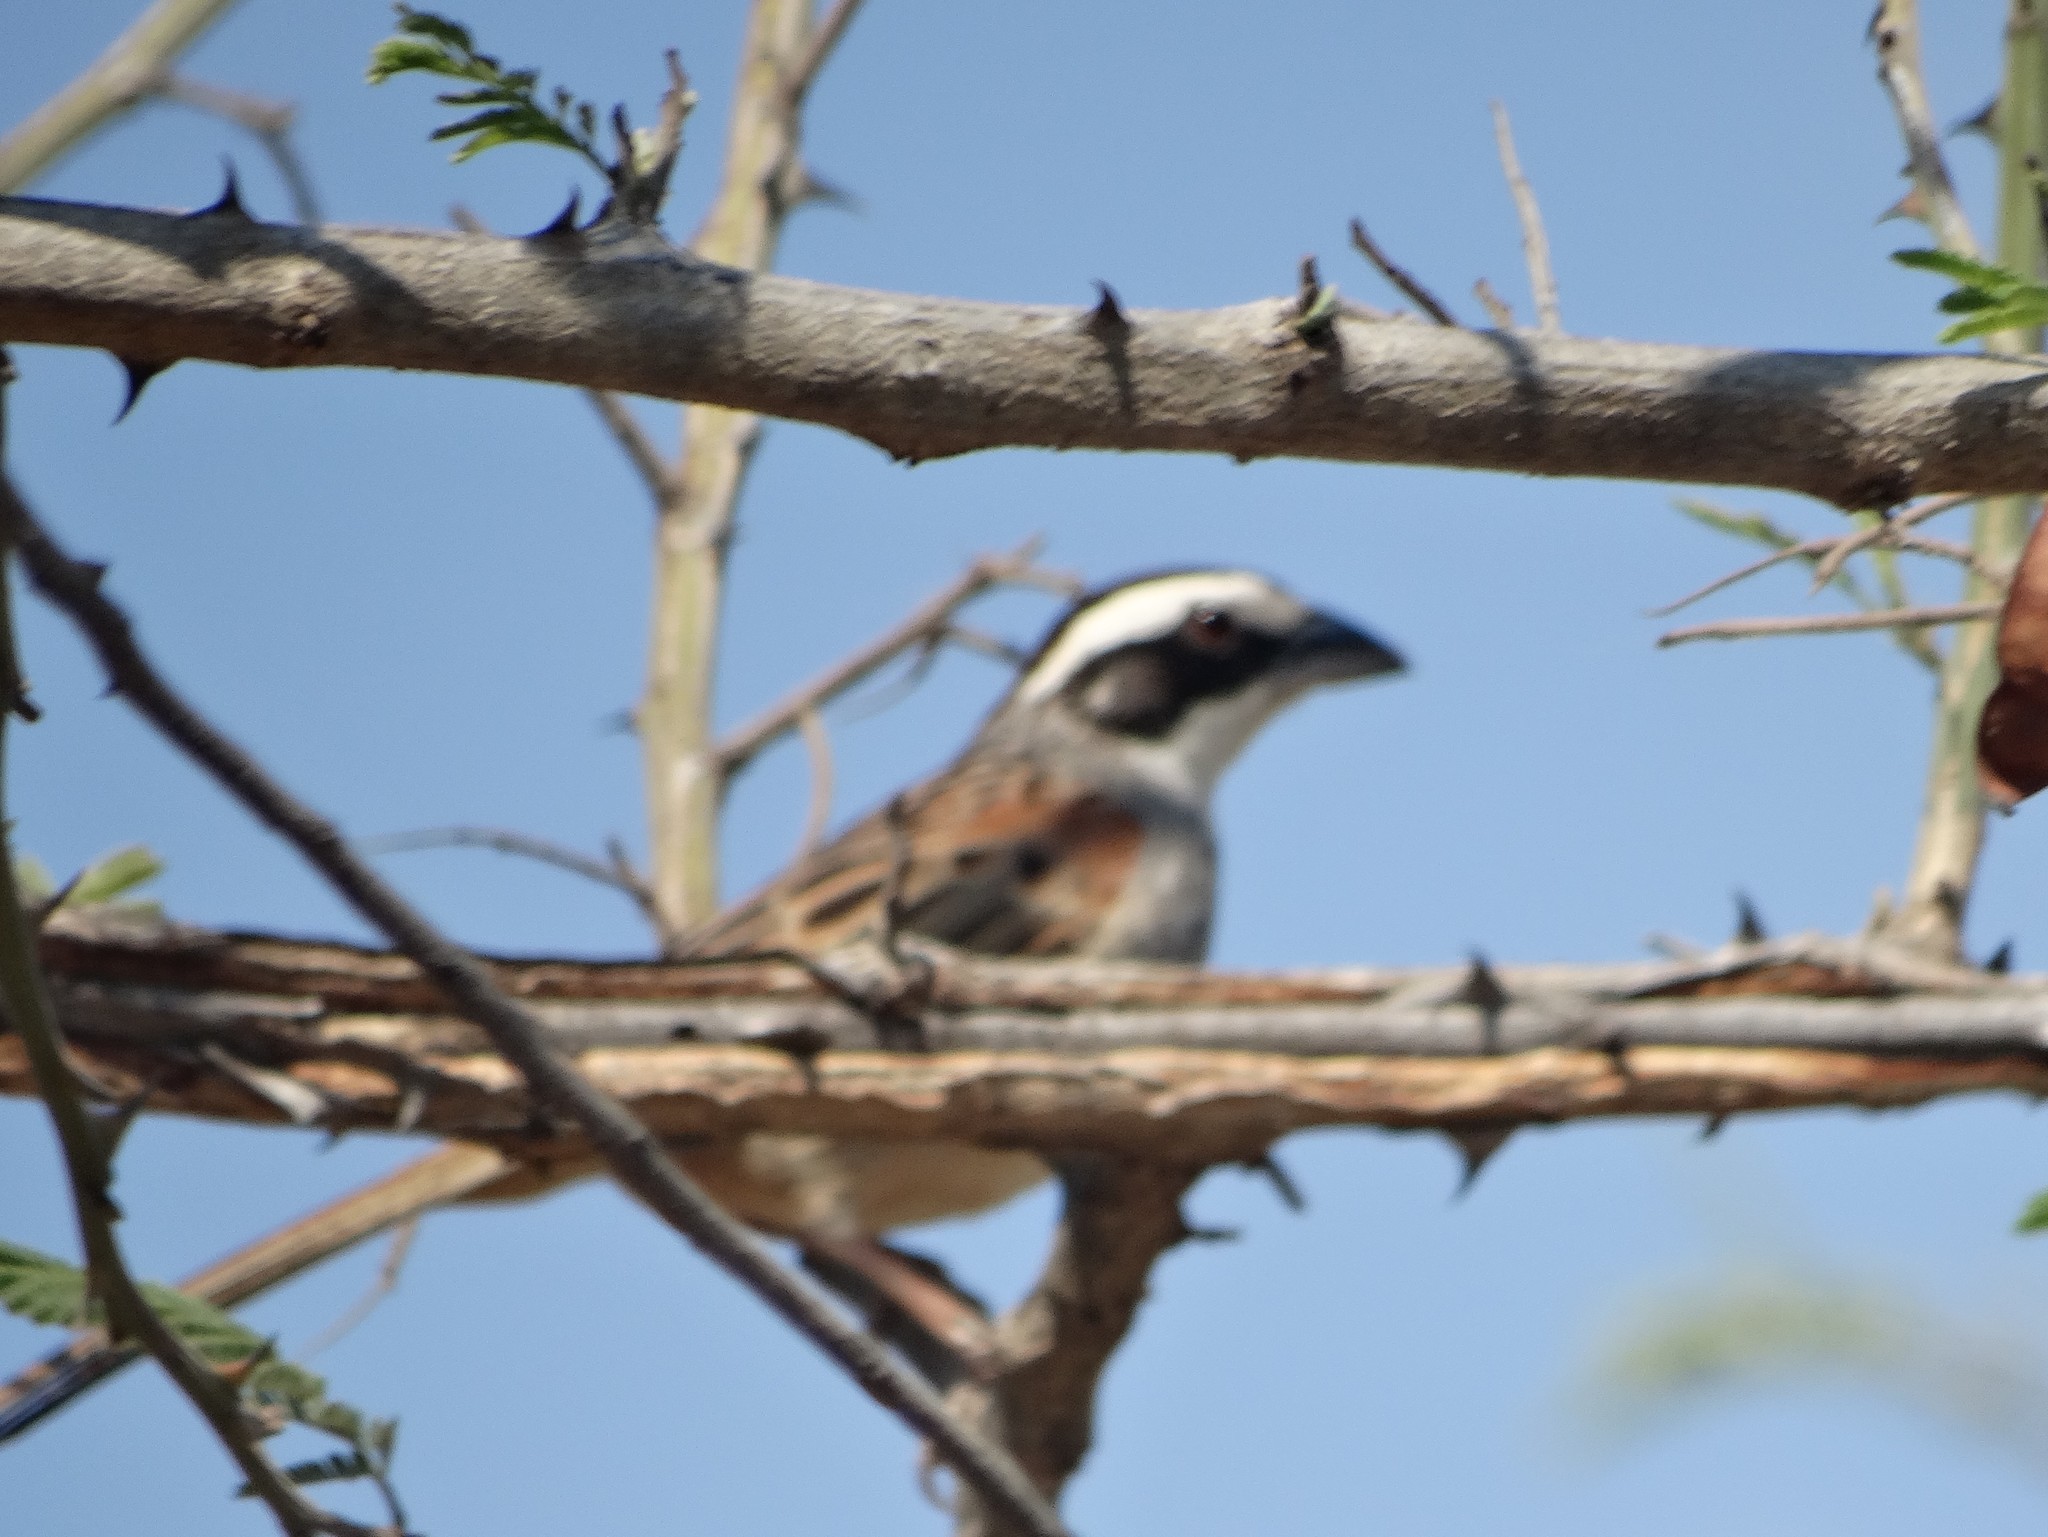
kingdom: Animalia
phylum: Chordata
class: Aves
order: Passeriformes
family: Passerellidae
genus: Peucaea
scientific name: Peucaea ruficauda
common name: Stripe-headed sparrow
